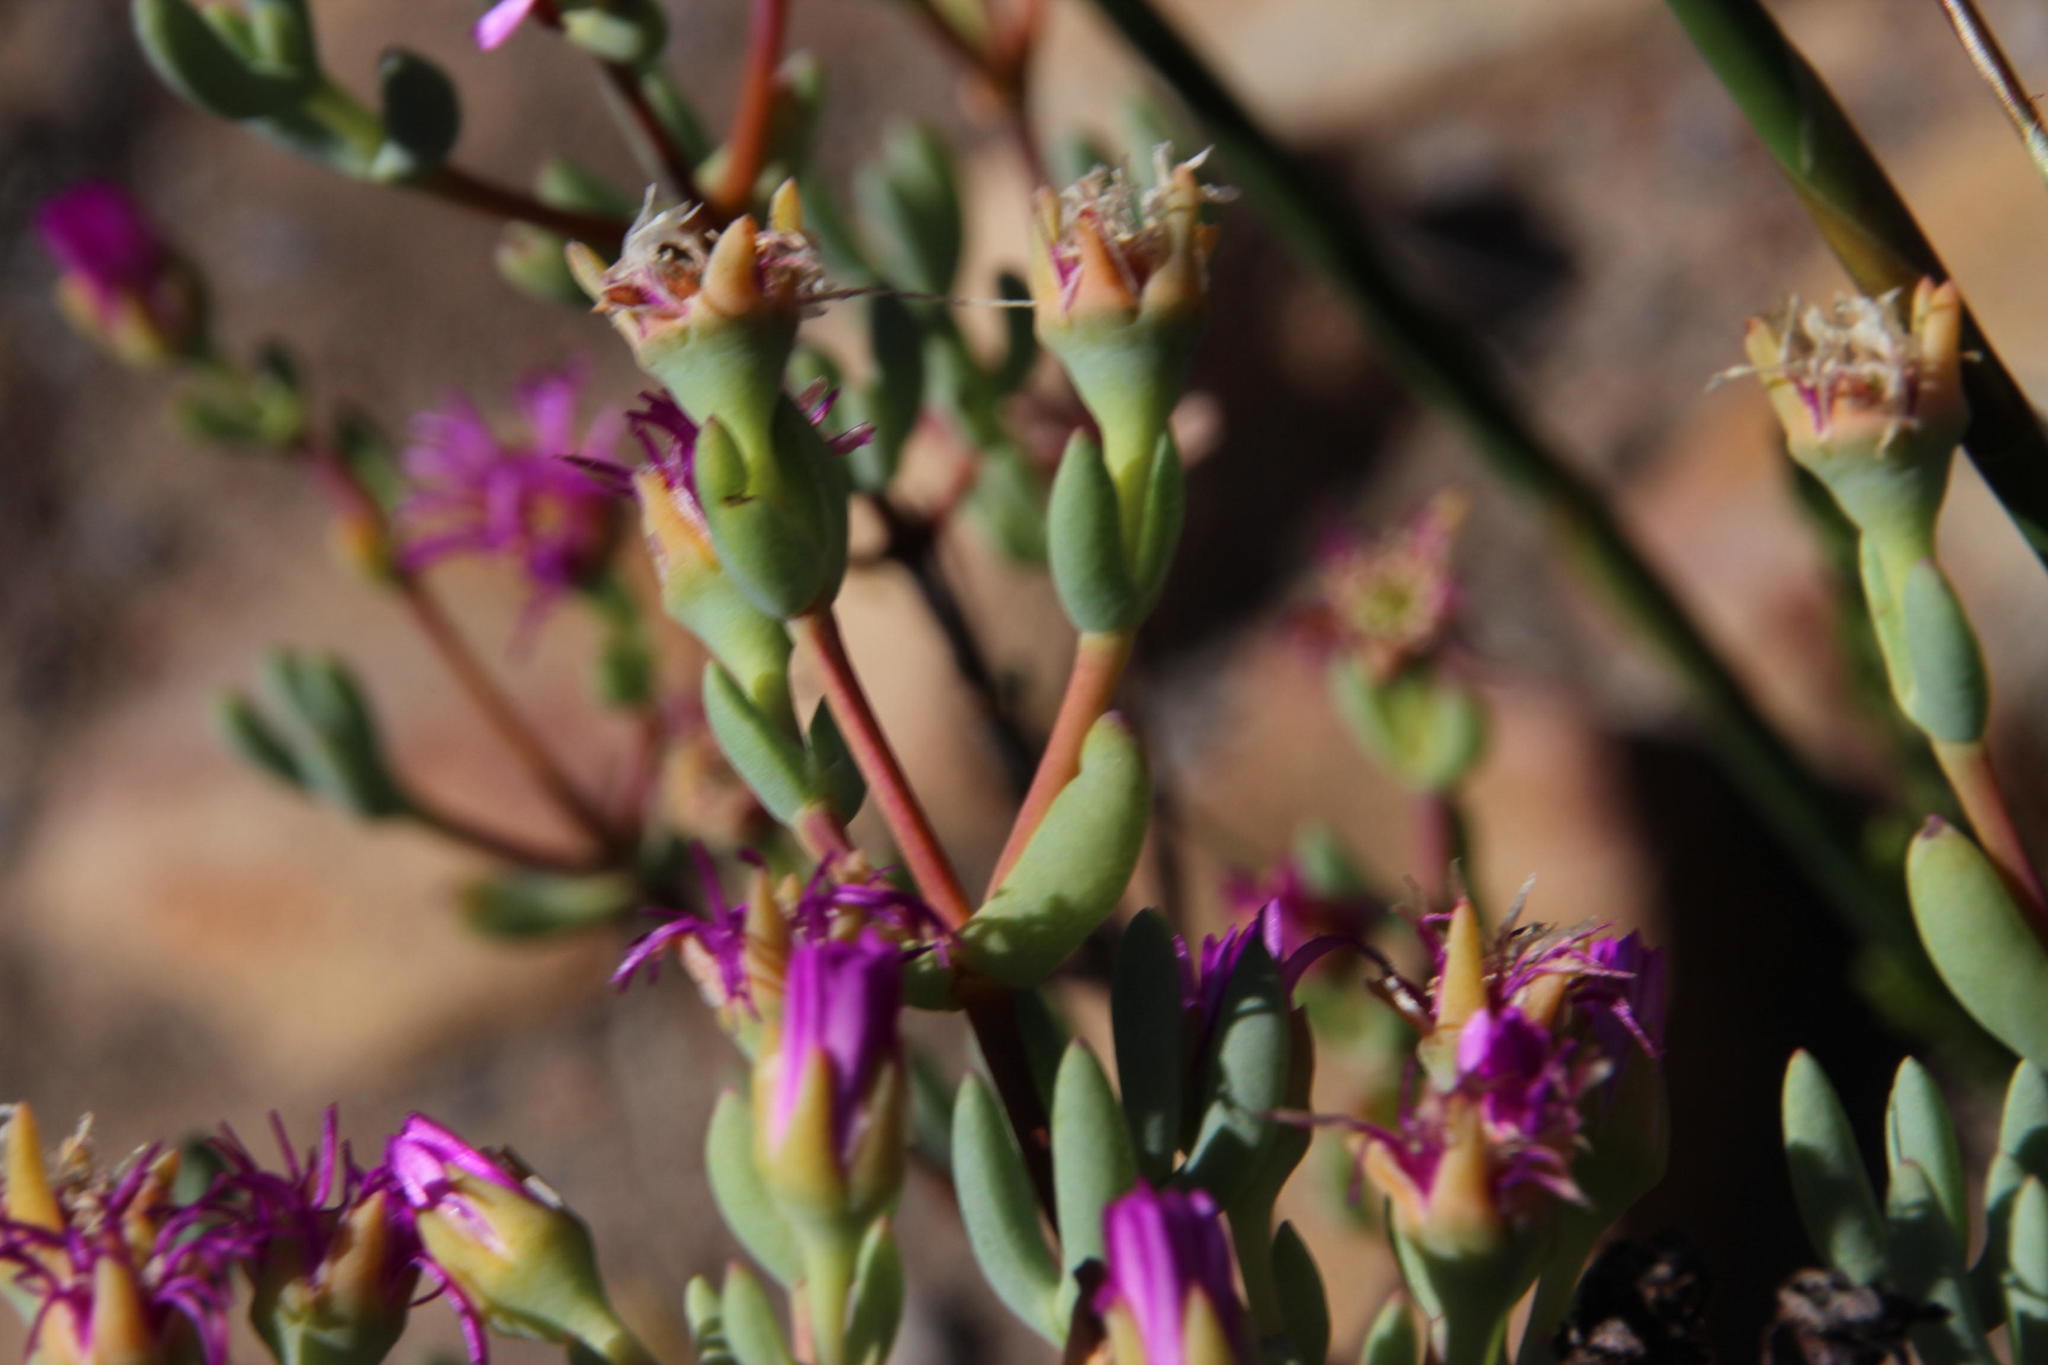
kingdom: Plantae
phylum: Tracheophyta
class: Magnoliopsida
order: Caryophyllales
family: Aizoaceae
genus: Ruschiella
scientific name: Ruschiella lunulata
